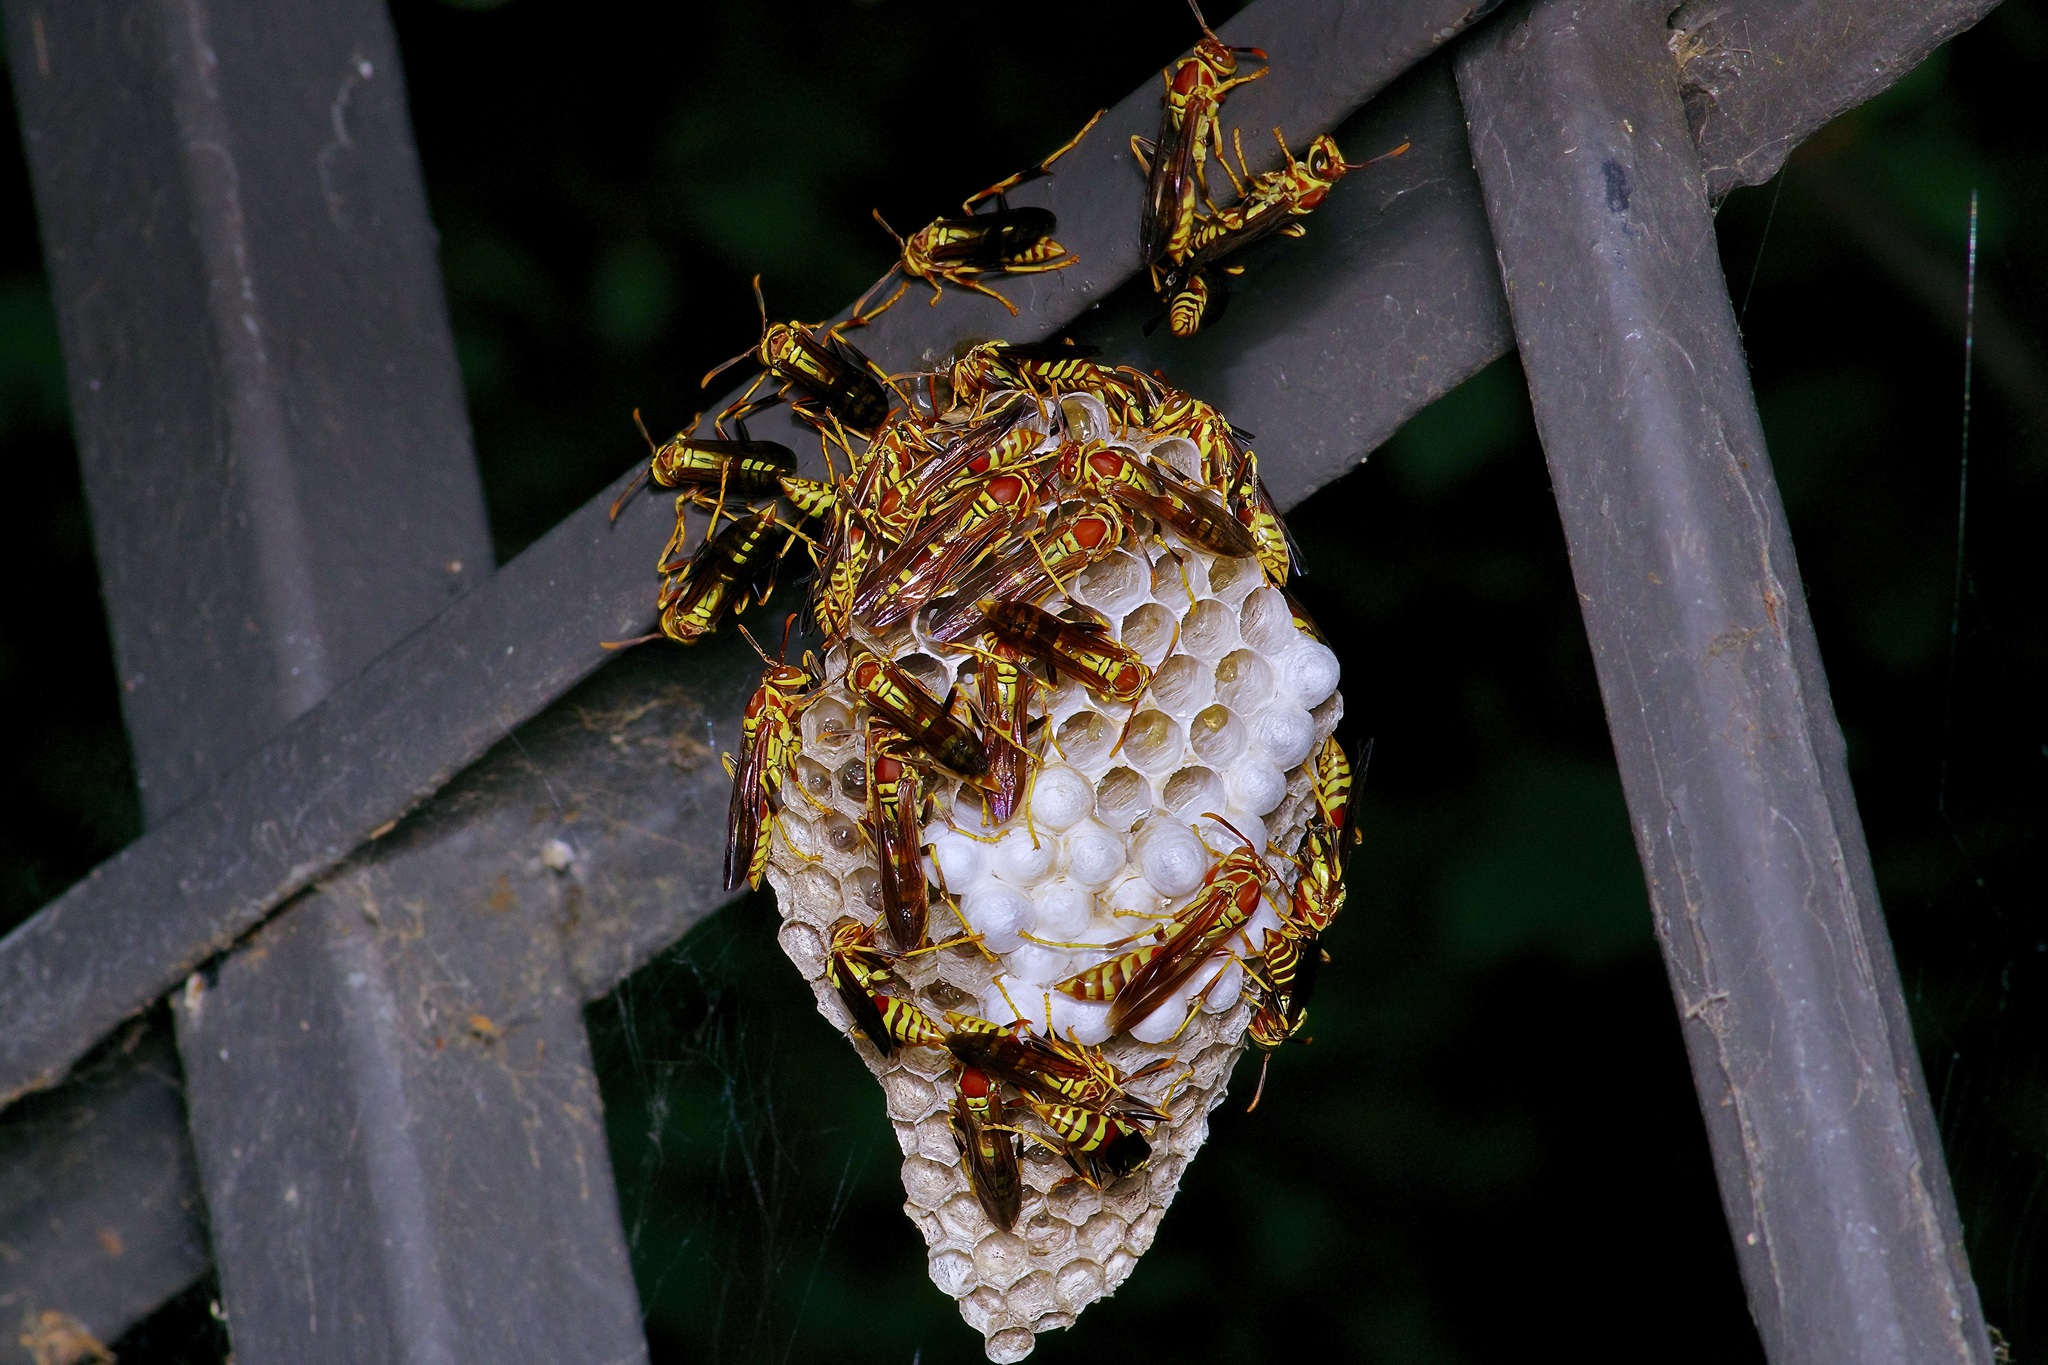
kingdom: Animalia
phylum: Arthropoda
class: Insecta
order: Hymenoptera
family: Eumenidae
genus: Polistes
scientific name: Polistes exclamans
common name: Paper wasp
